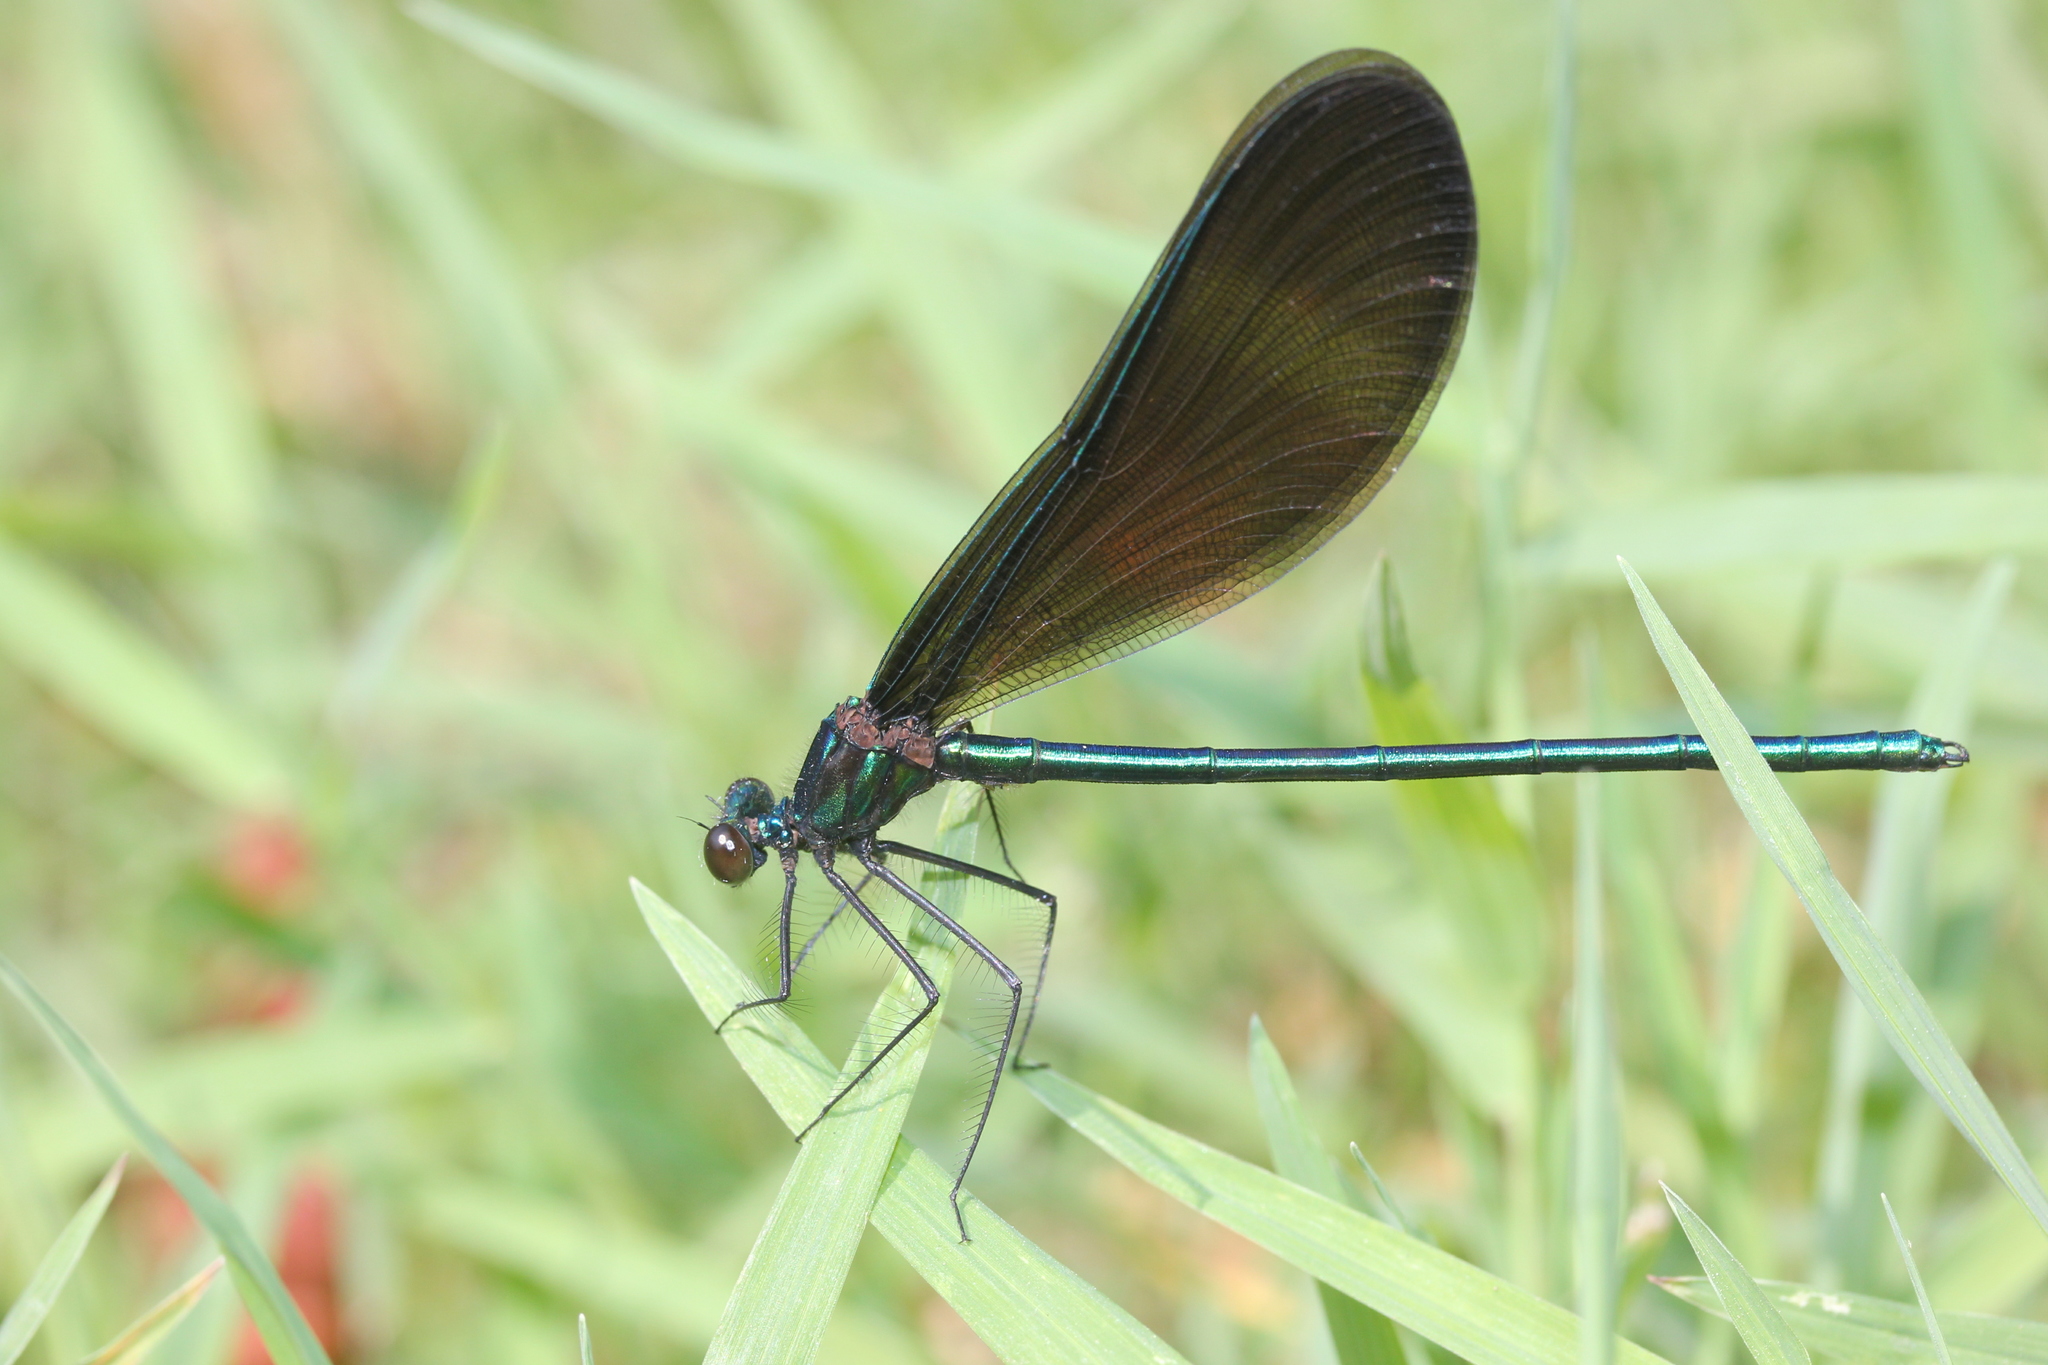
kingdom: Animalia
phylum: Arthropoda
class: Insecta
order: Odonata
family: Calopterygidae
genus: Calopteryx
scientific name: Calopteryx maculata
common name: Ebony jewelwing
